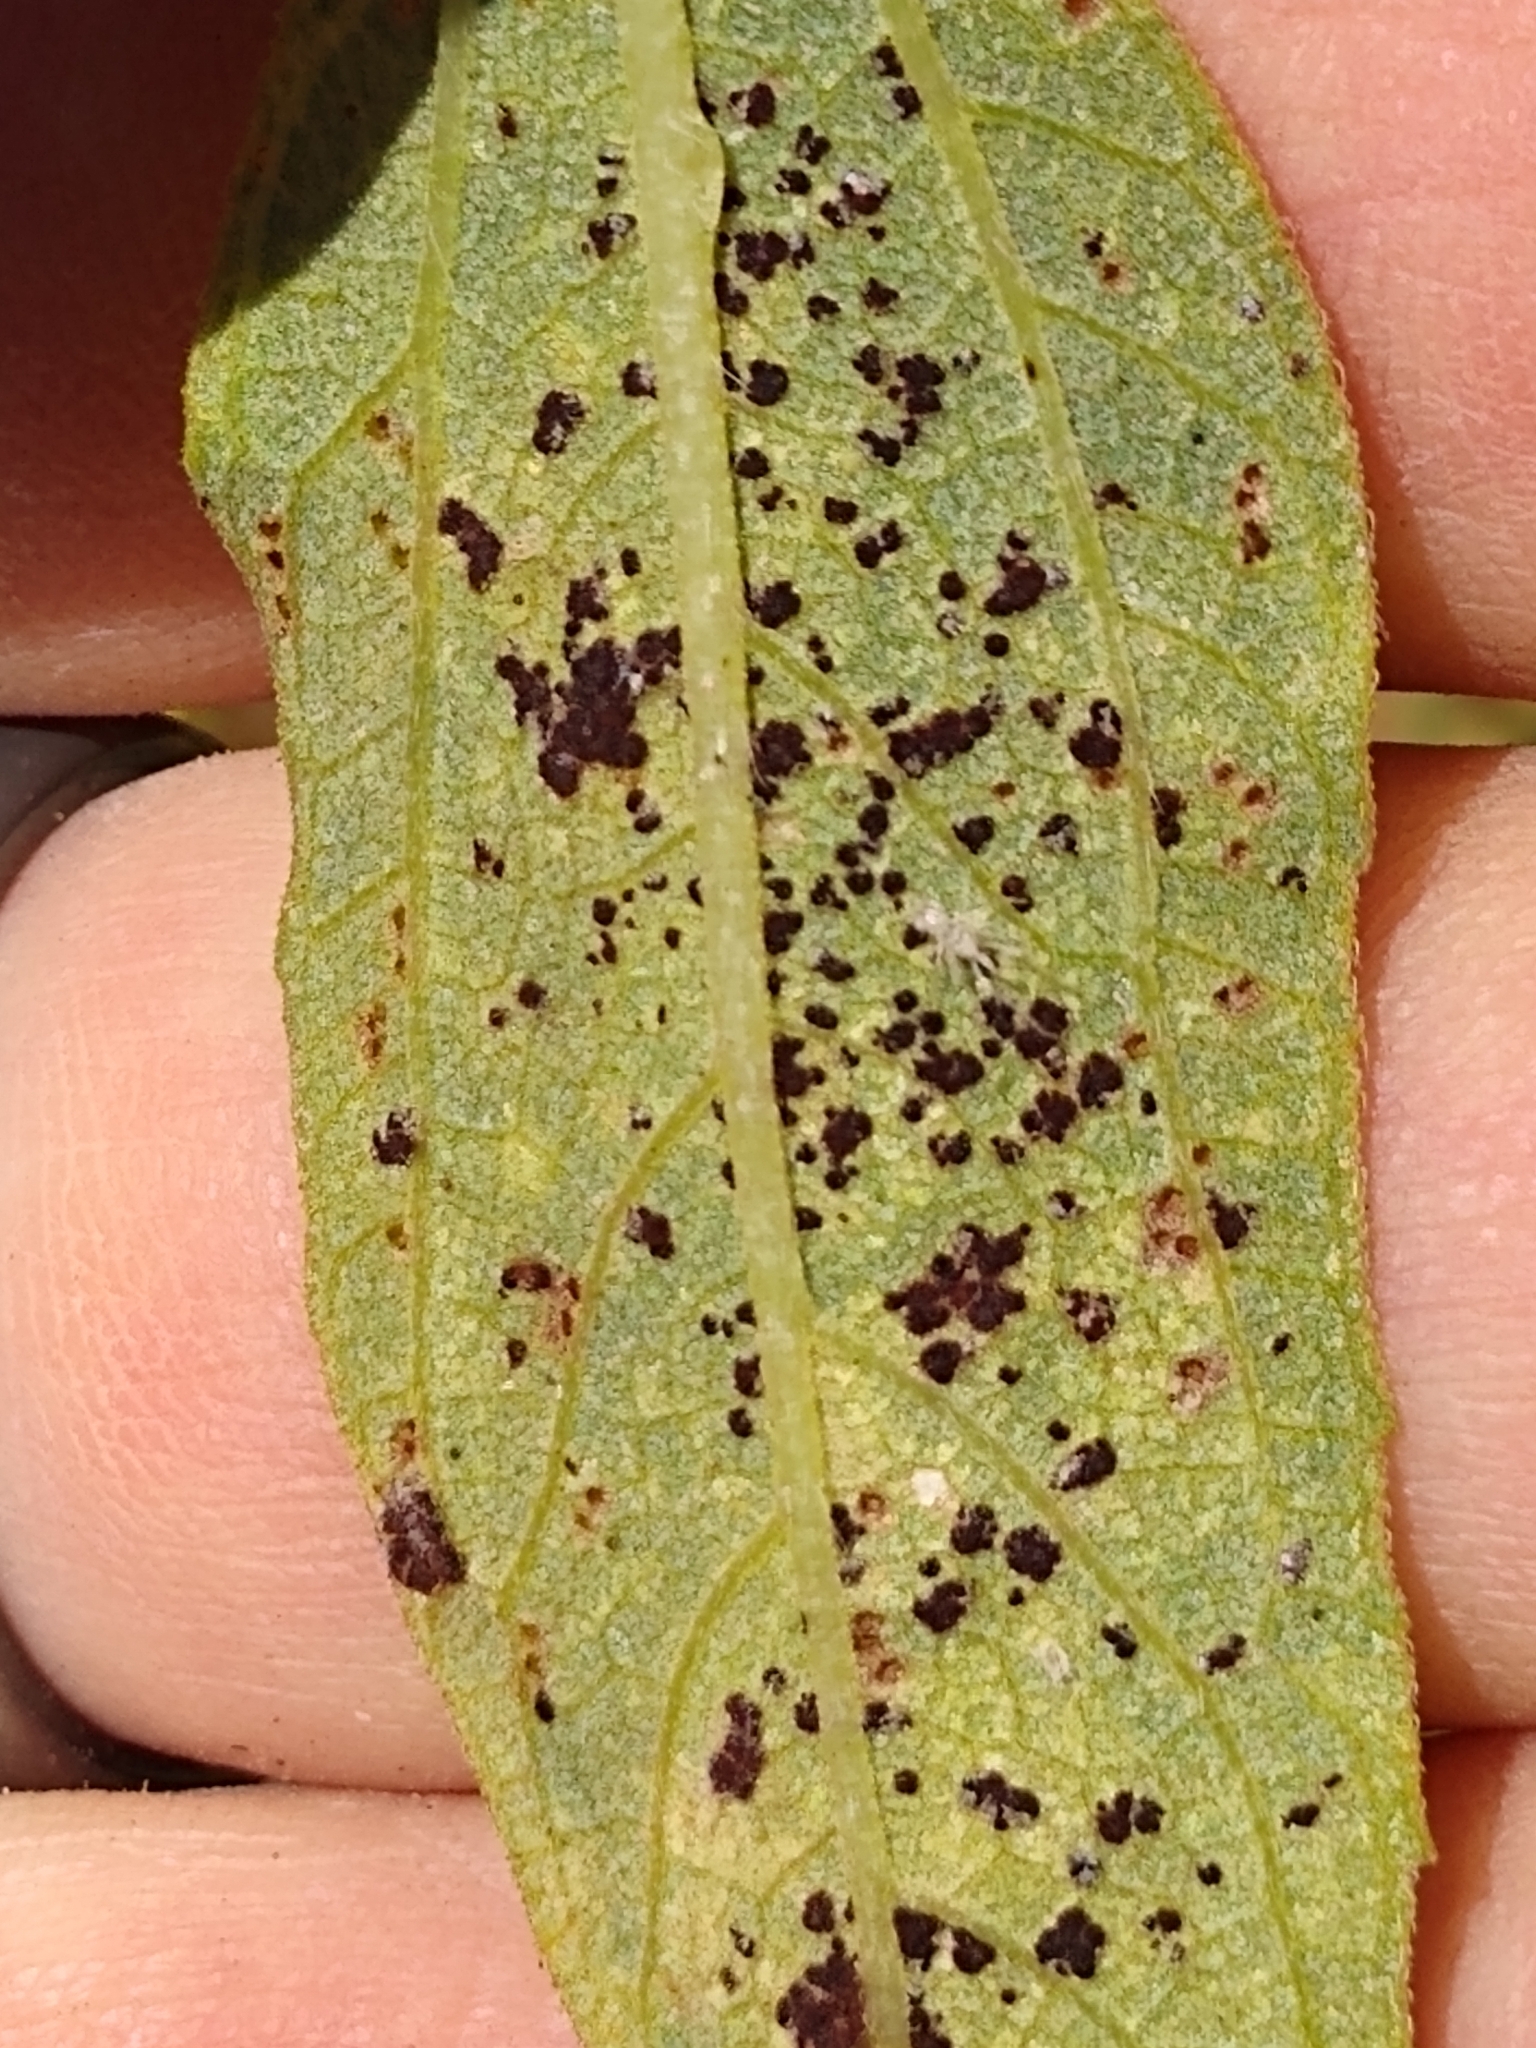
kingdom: Fungi
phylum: Basidiomycota
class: Pucciniomycetes
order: Pucciniales
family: Pucciniaceae
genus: Puccinia
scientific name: Puccinia helianthi-mollis
